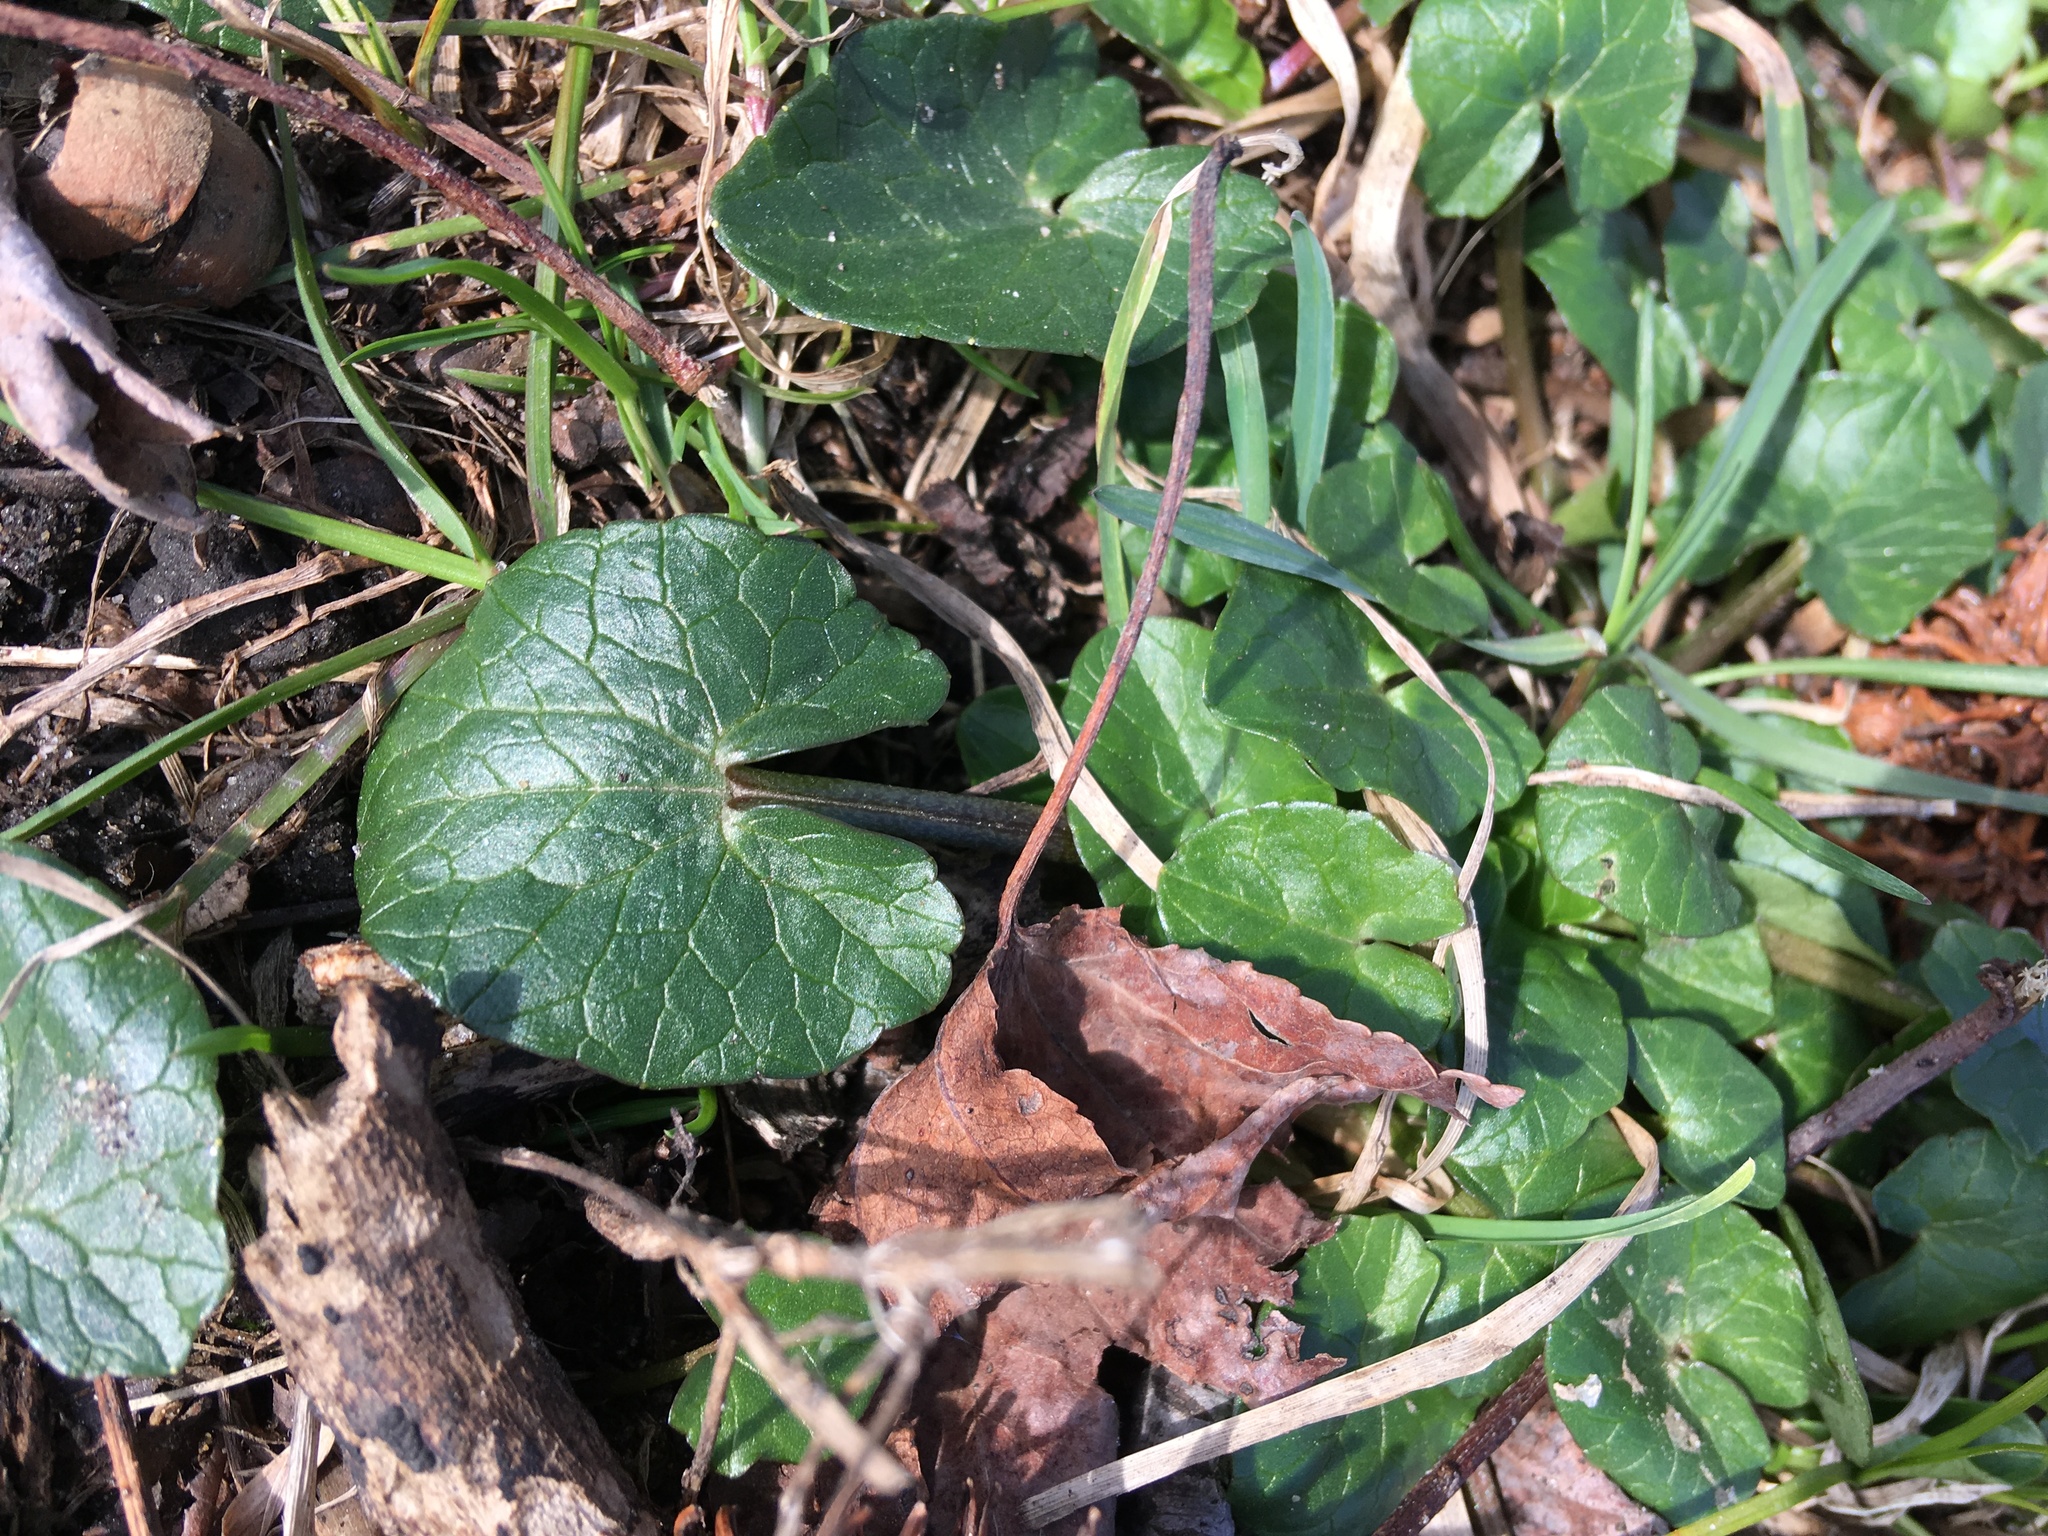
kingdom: Plantae
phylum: Tracheophyta
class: Magnoliopsida
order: Ranunculales
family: Ranunculaceae
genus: Ficaria
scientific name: Ficaria verna
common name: Lesser celandine
